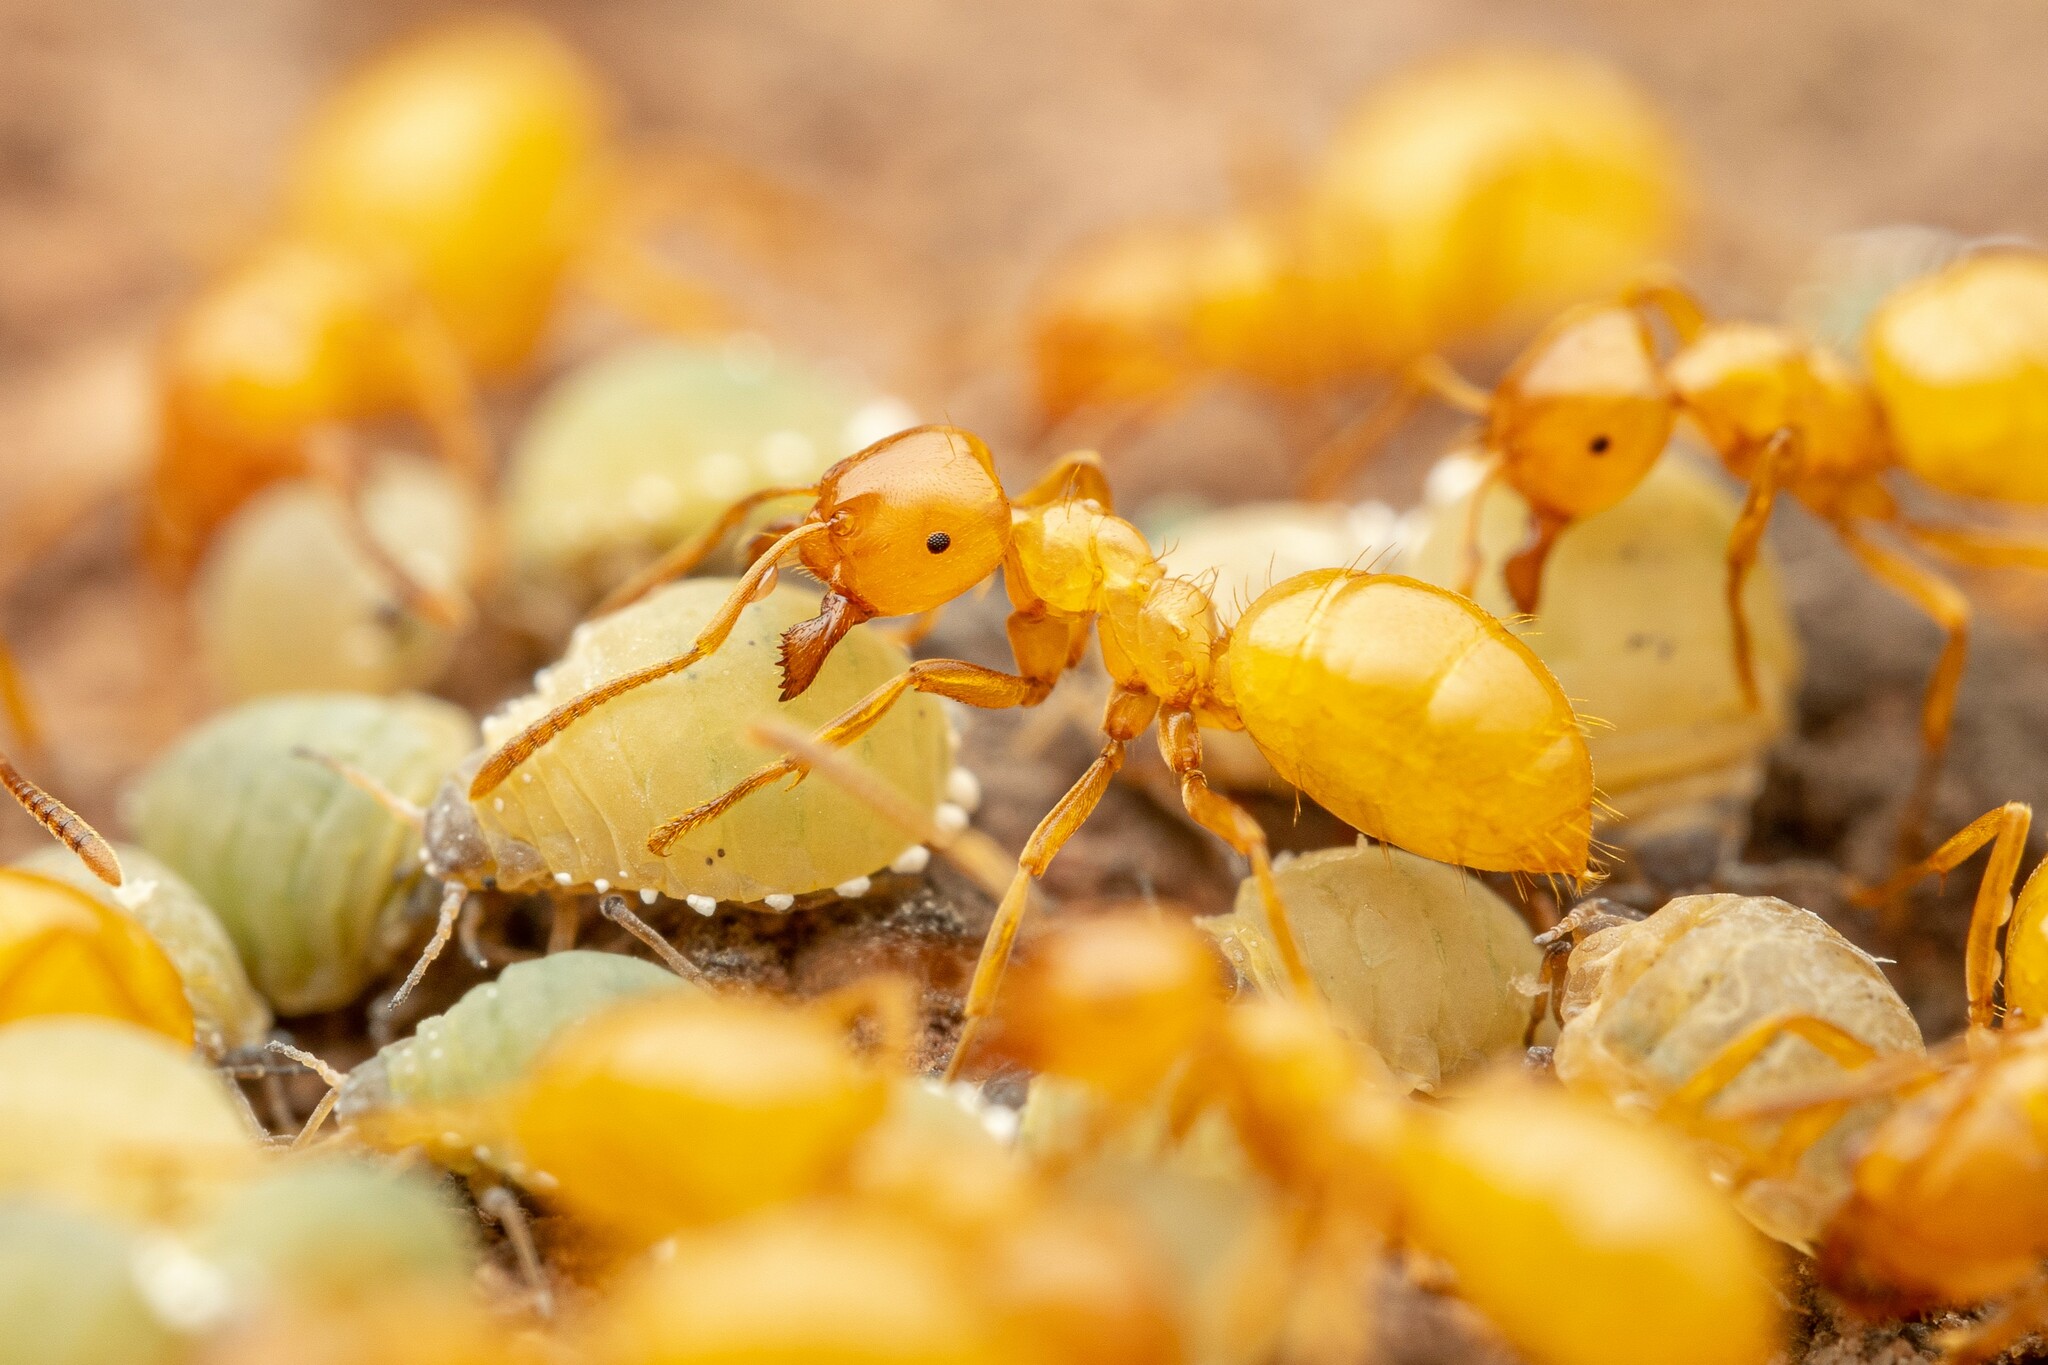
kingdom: Animalia
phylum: Arthropoda
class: Insecta
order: Hymenoptera
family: Formicidae
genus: Lasius
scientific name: Lasius arizonicus
